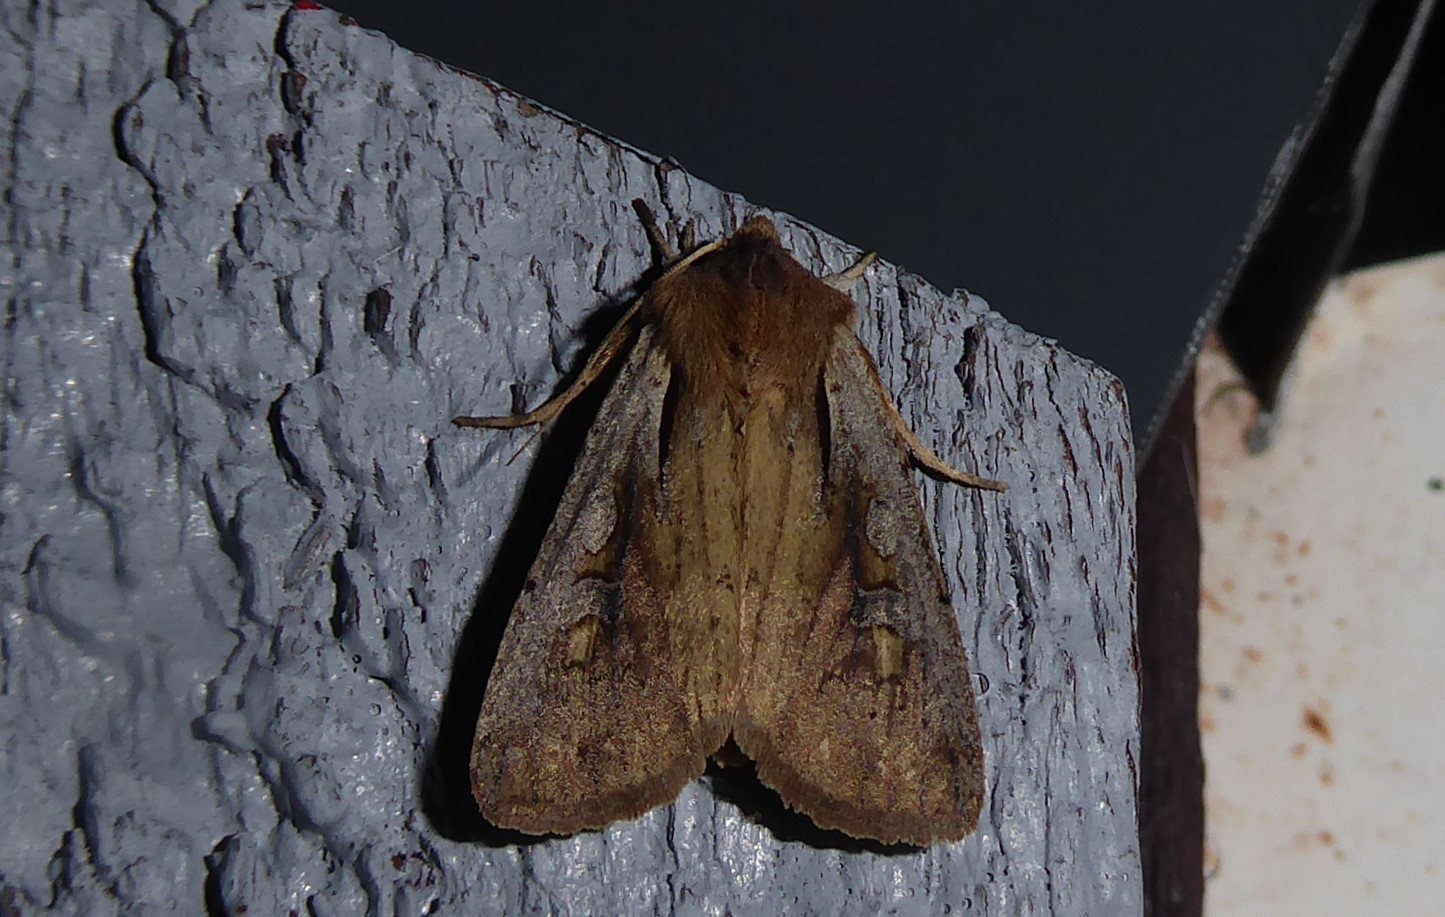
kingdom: Animalia
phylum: Arthropoda
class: Insecta
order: Lepidoptera
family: Noctuidae
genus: Ichneutica
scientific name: Ichneutica atristriga
